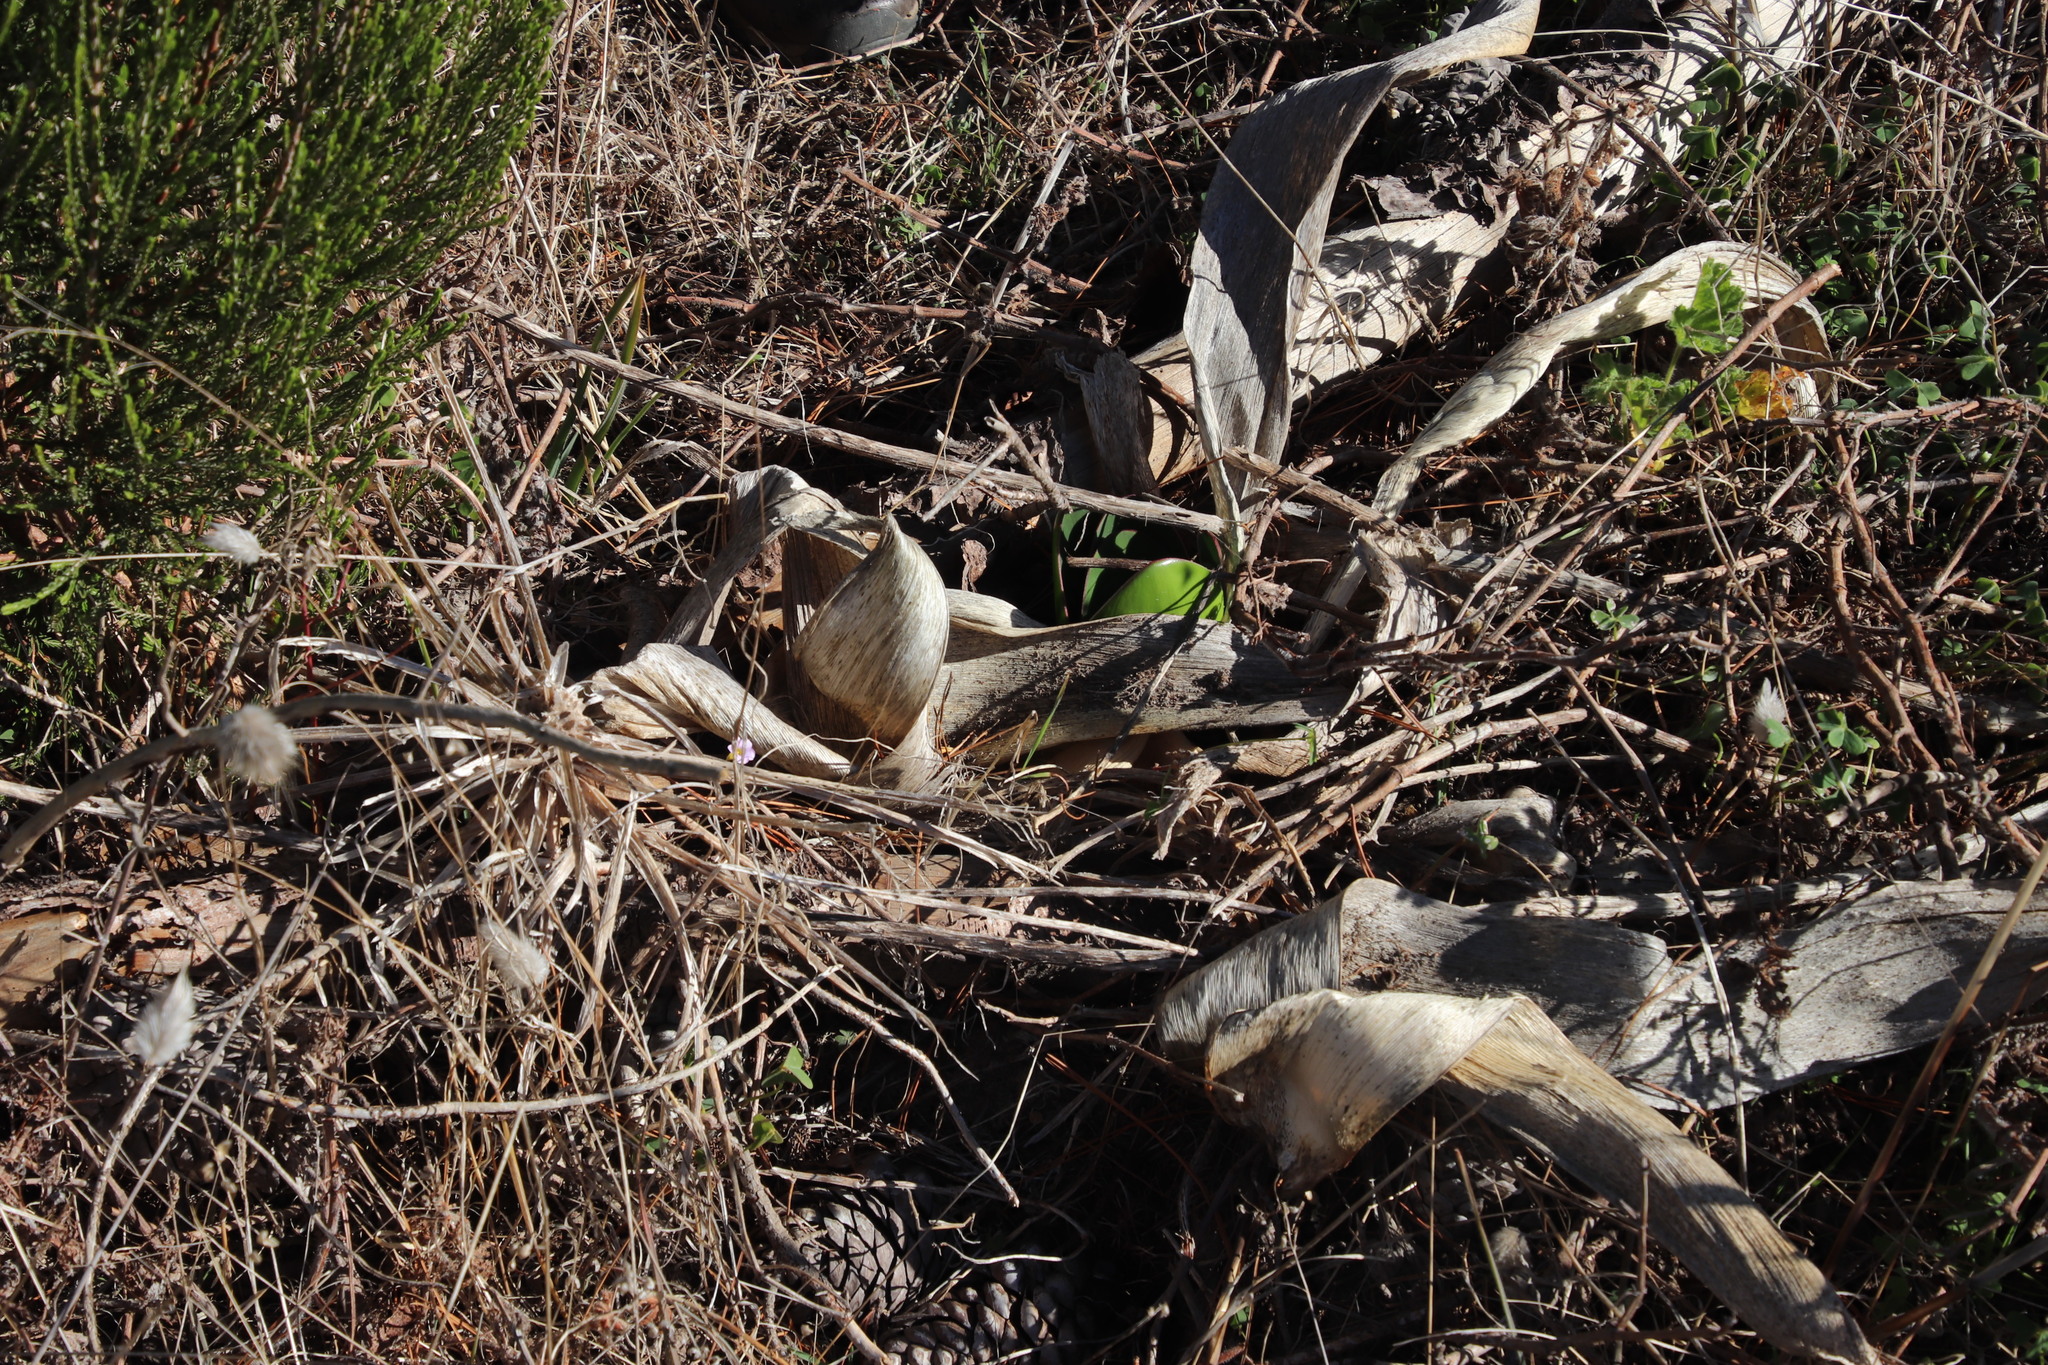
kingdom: Plantae
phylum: Tracheophyta
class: Liliopsida
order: Asparagales
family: Amaryllidaceae
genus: Brunsvigia
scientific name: Brunsvigia orientalis
